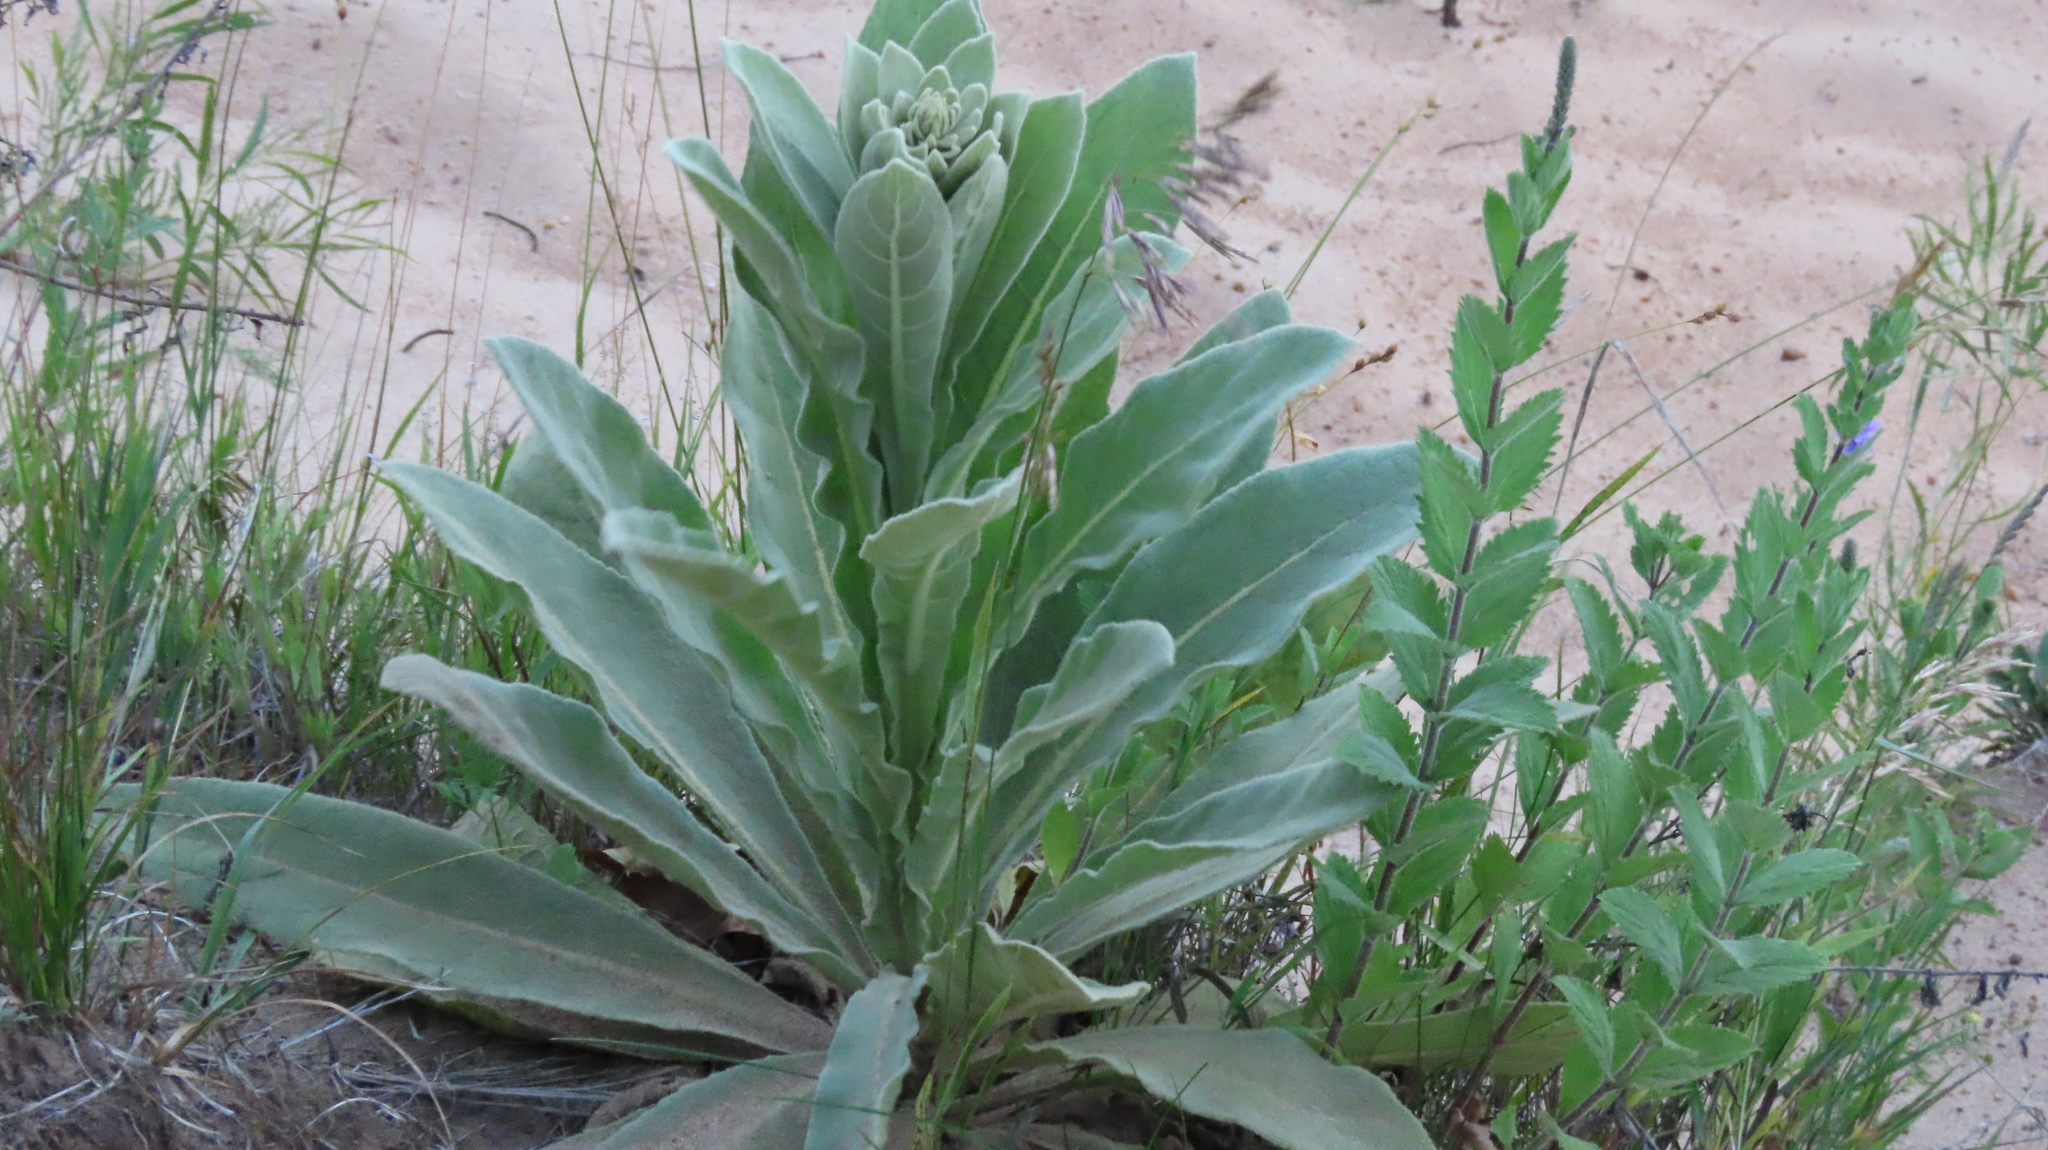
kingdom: Plantae
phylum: Tracheophyta
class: Magnoliopsida
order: Lamiales
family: Scrophulariaceae
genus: Verbascum
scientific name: Verbascum thapsus
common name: Common mullein
